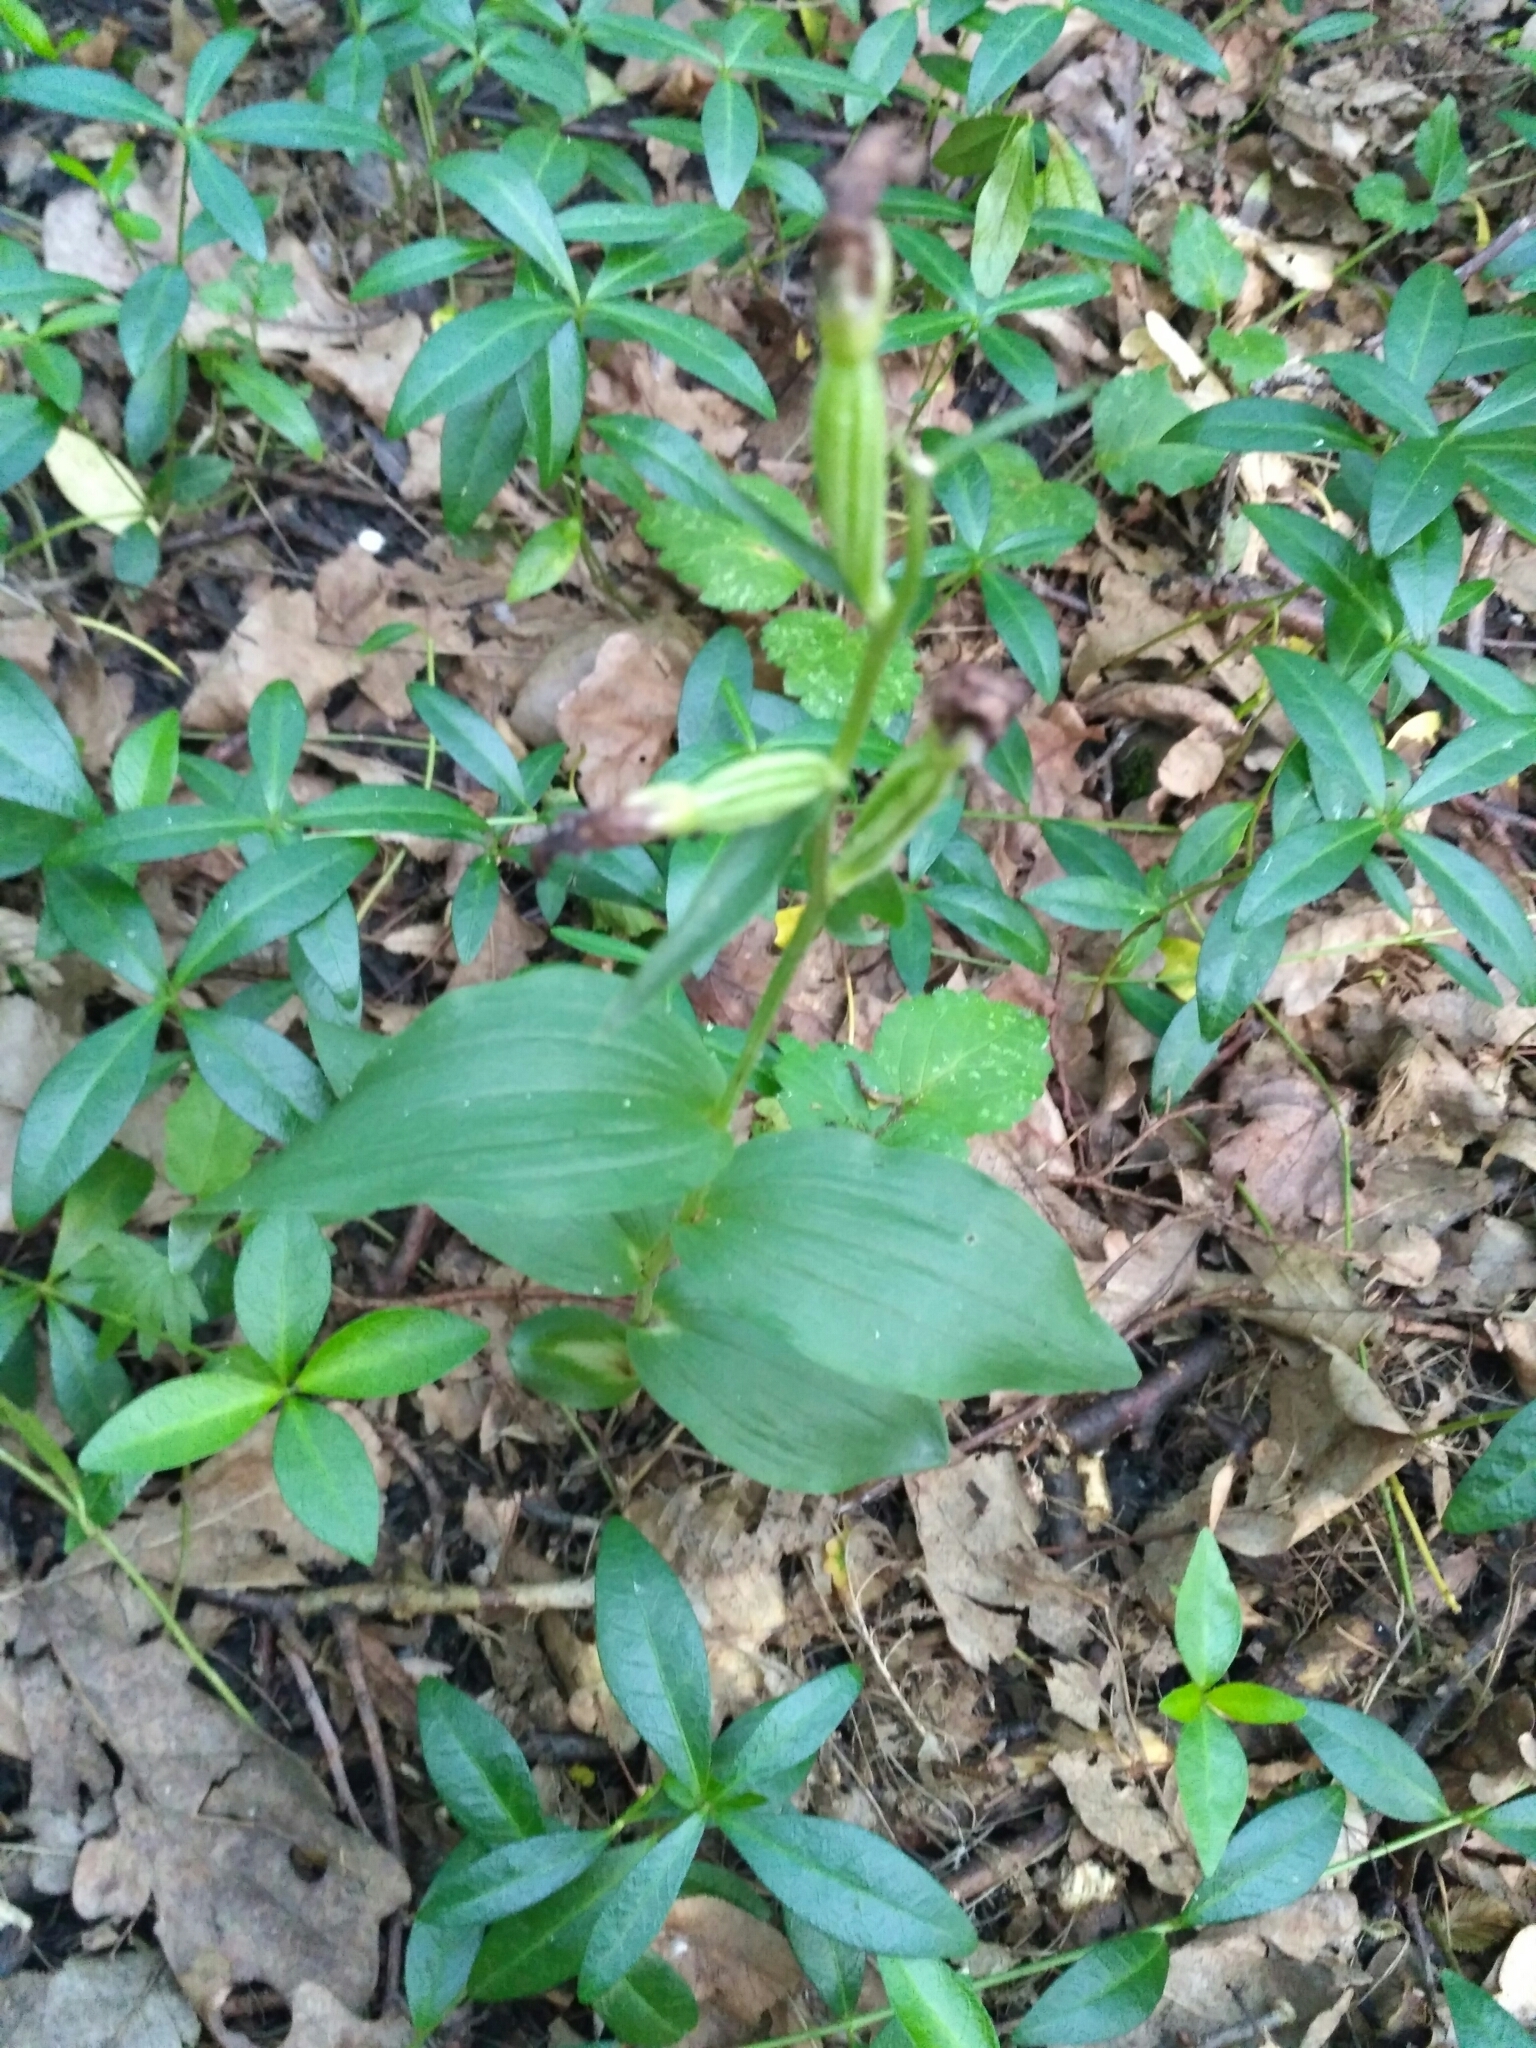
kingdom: Plantae
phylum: Tracheophyta
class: Liliopsida
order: Asparagales
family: Orchidaceae
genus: Cephalanthera
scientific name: Cephalanthera damasonium
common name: White helleborine
